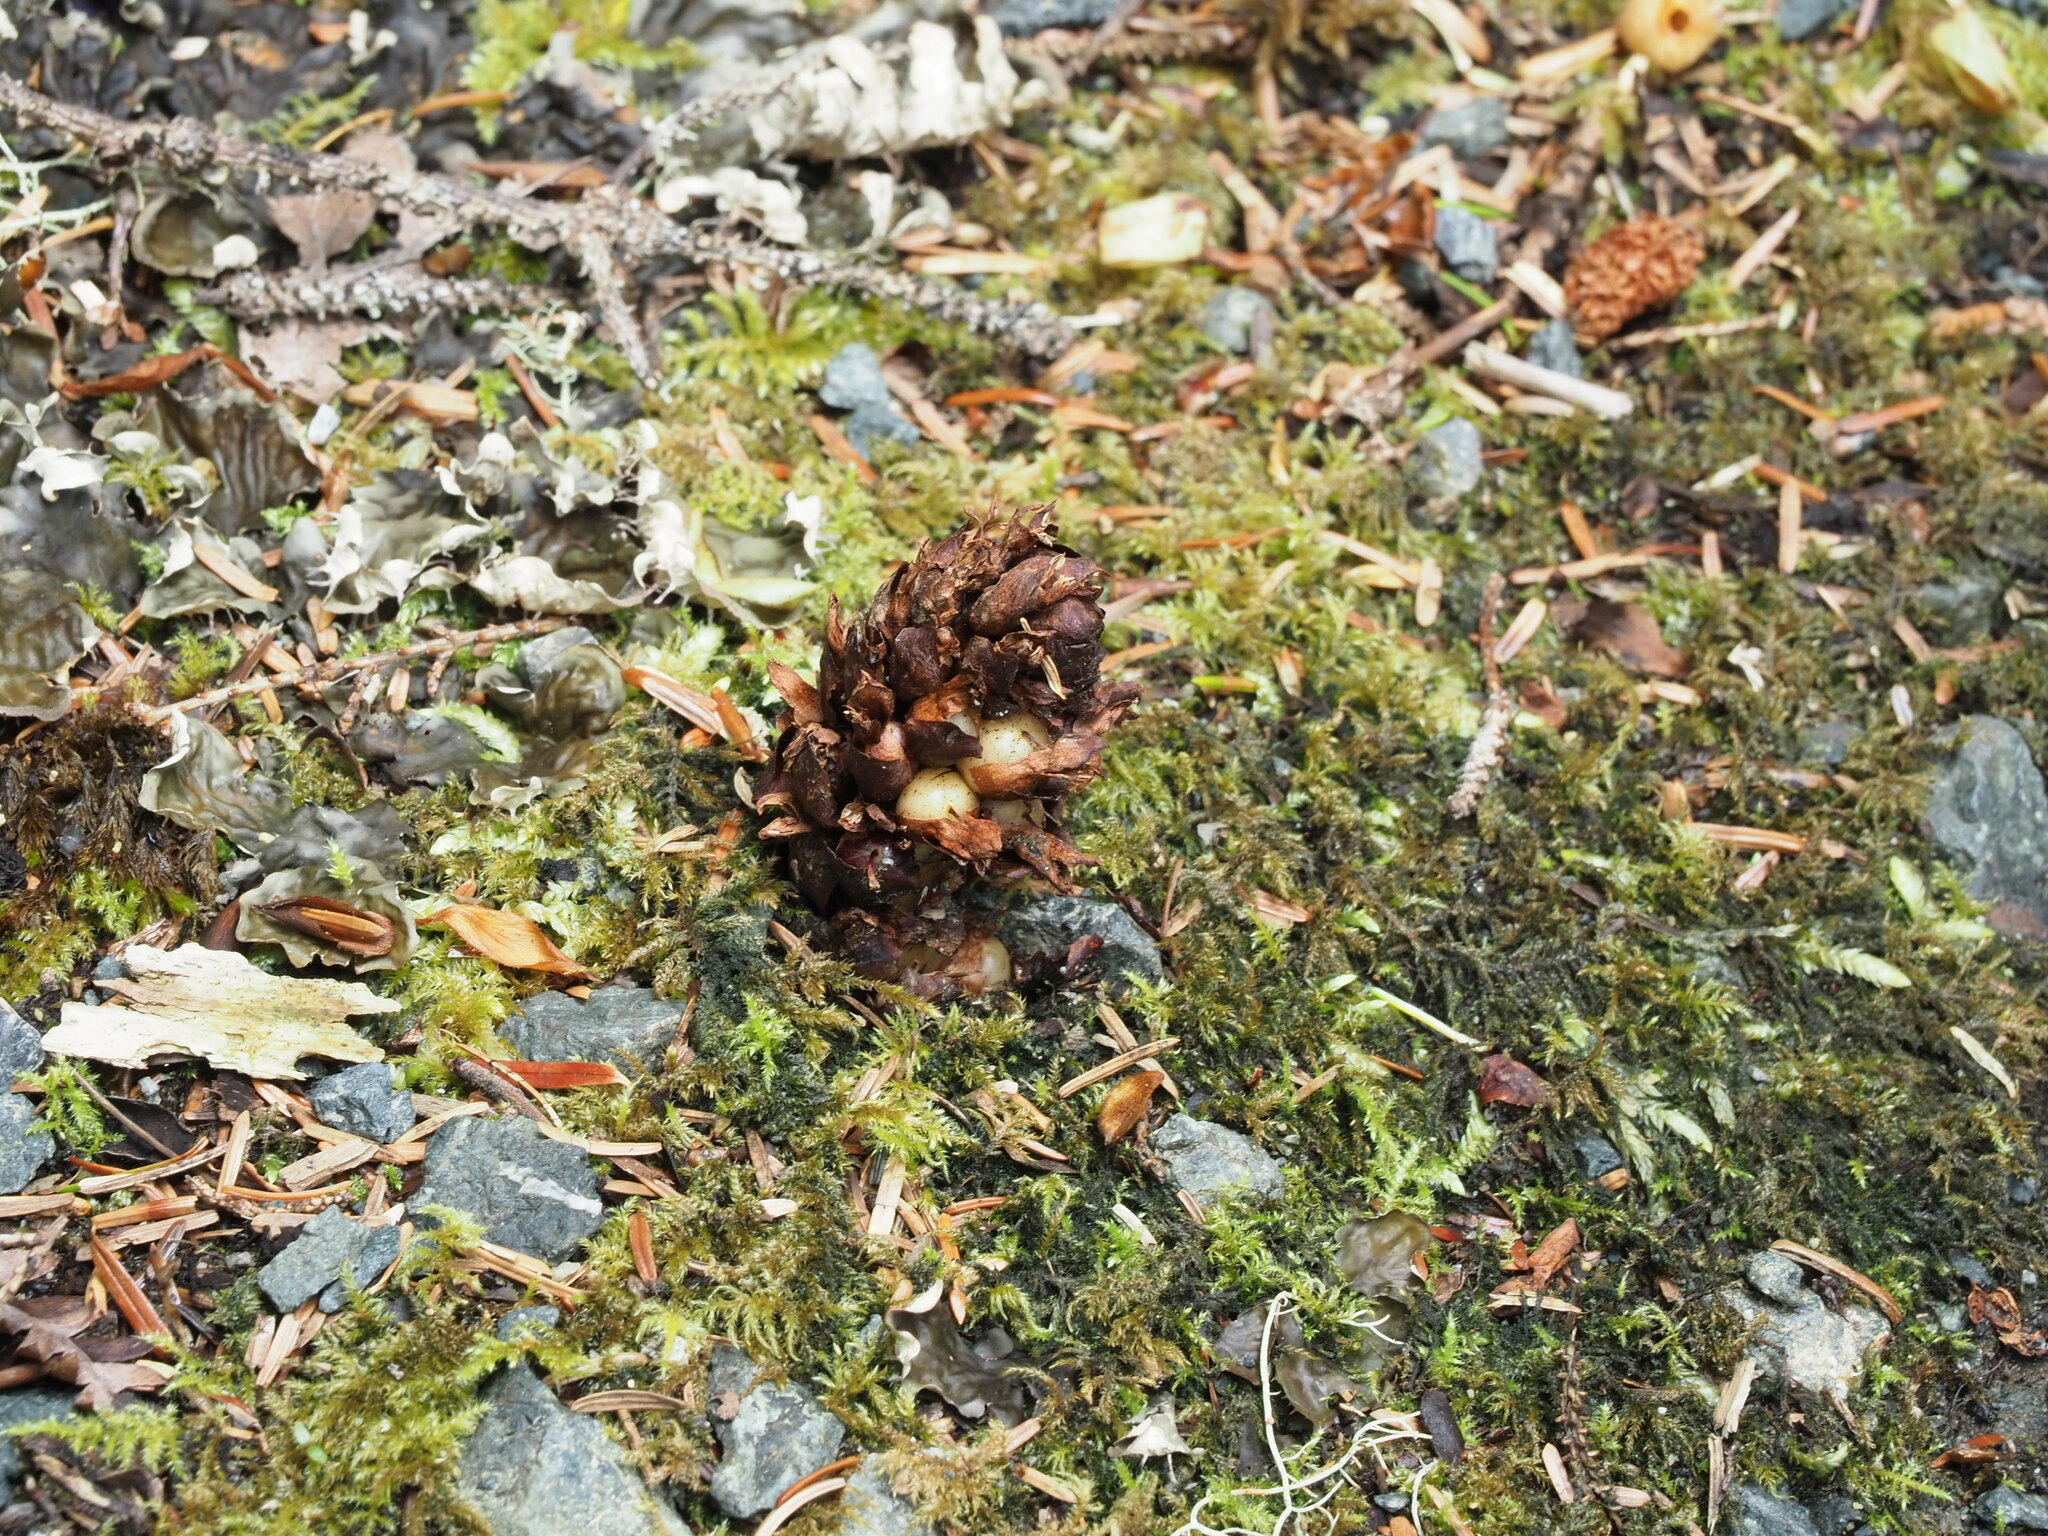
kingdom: Plantae
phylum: Tracheophyta
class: Magnoliopsida
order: Lamiales
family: Orobanchaceae
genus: Kopsiopsis
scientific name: Kopsiopsis hookeri
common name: Hooker's groundcone
